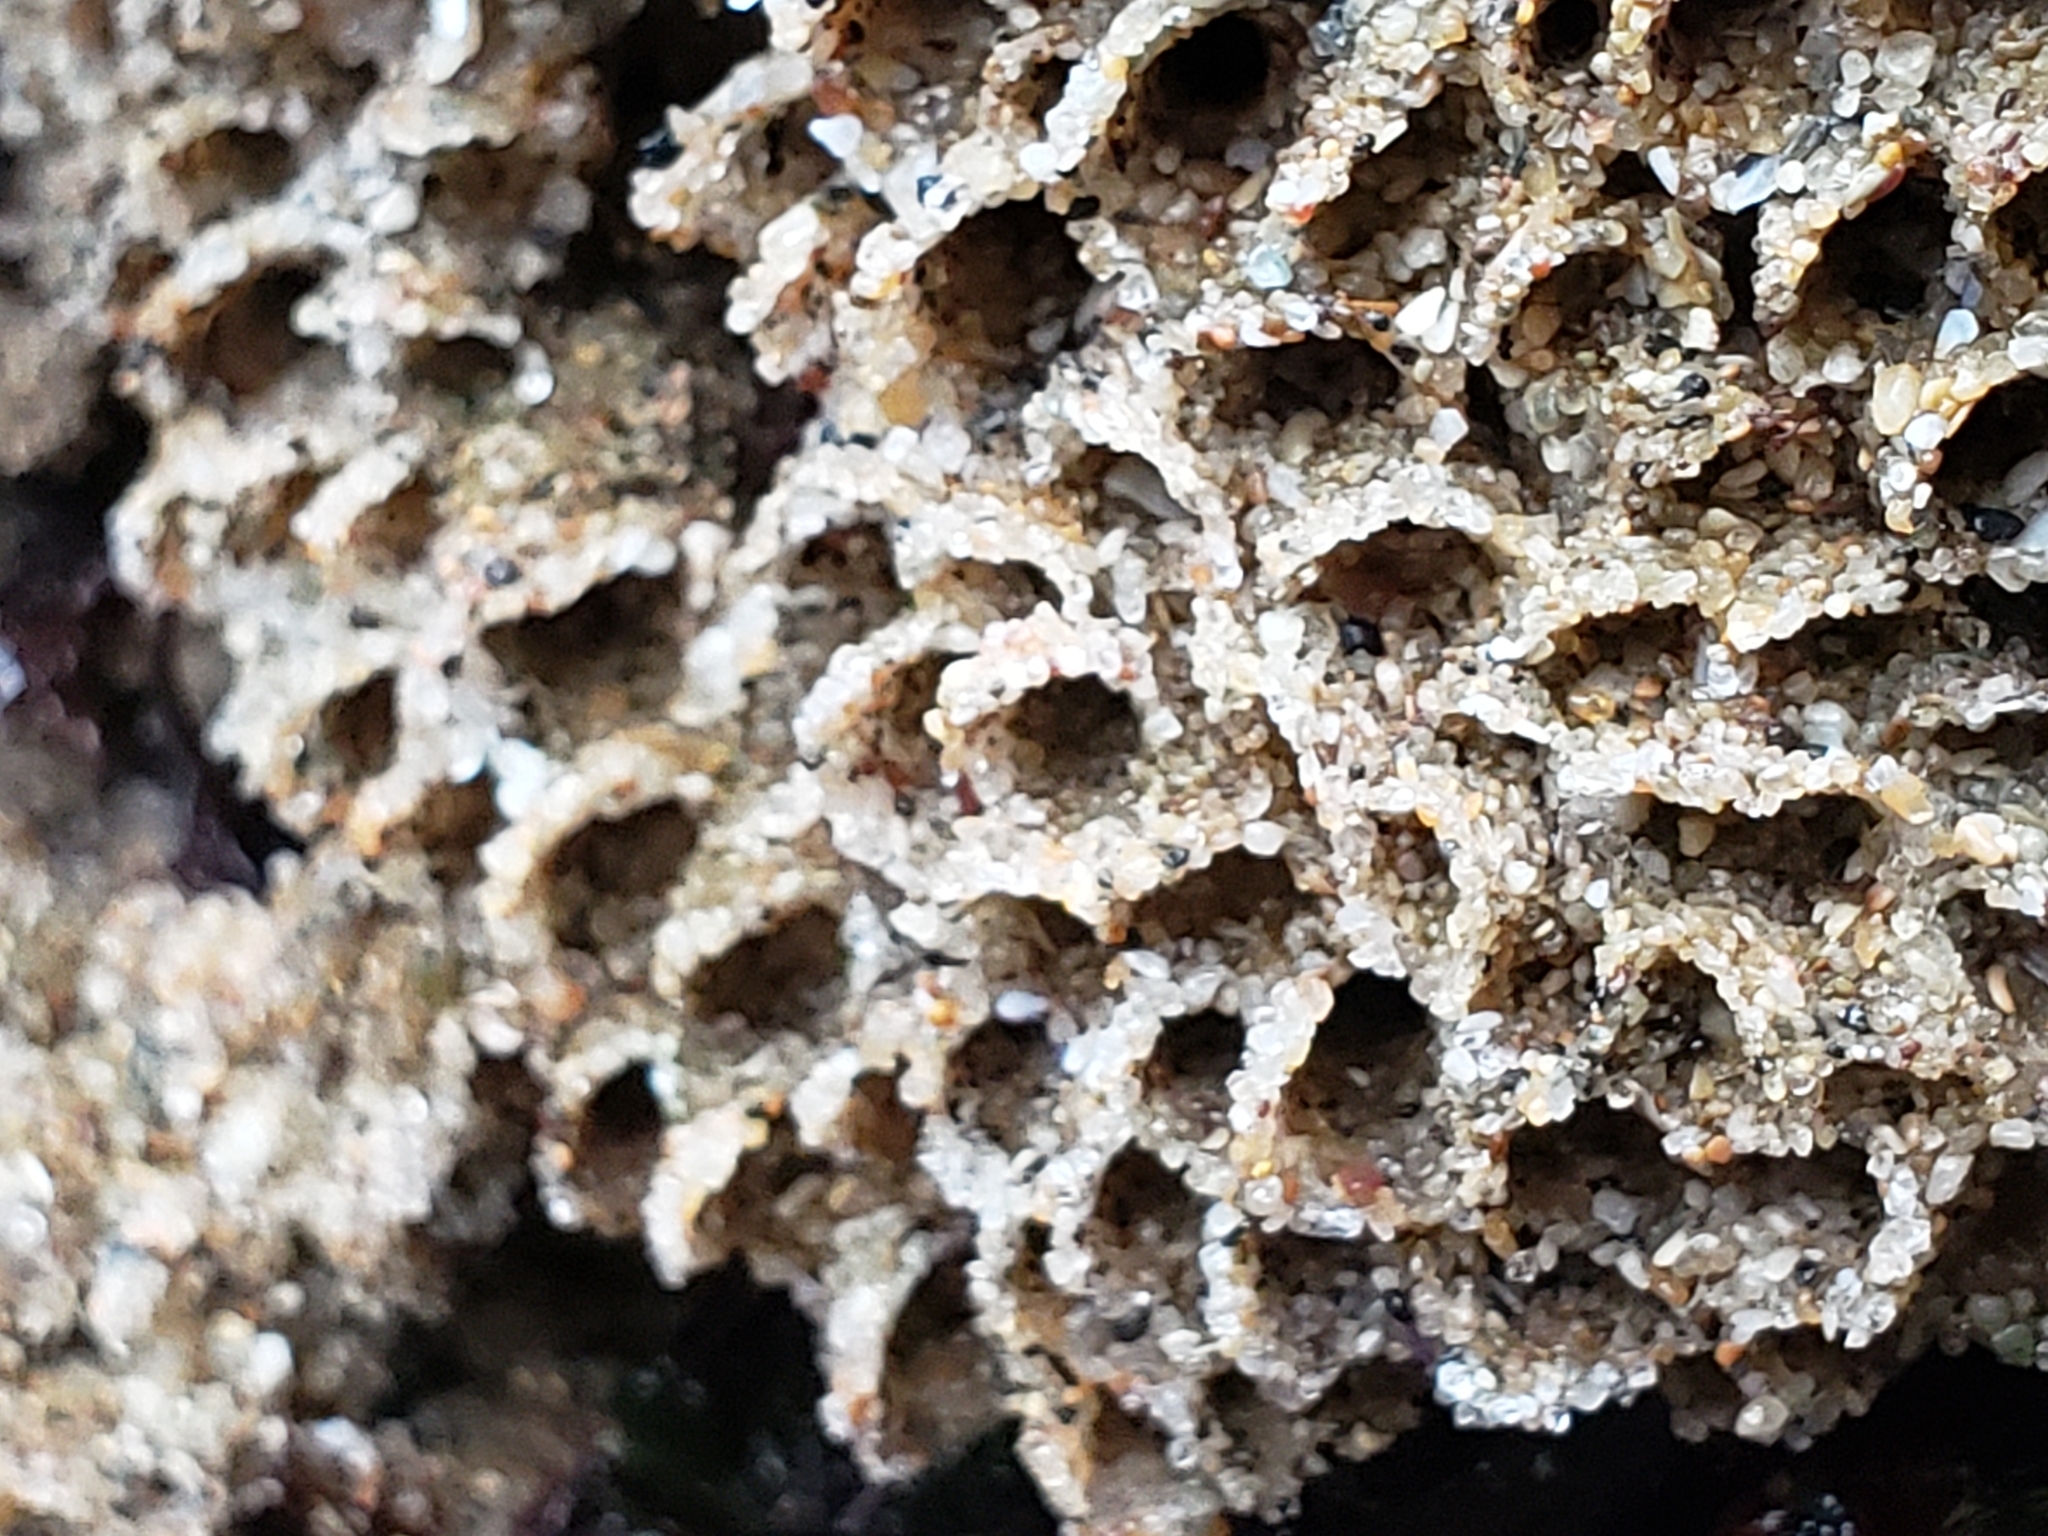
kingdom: Animalia
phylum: Annelida
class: Polychaeta
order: Sabellida
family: Sabellariidae
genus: Phragmatopoma
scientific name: Phragmatopoma californica
